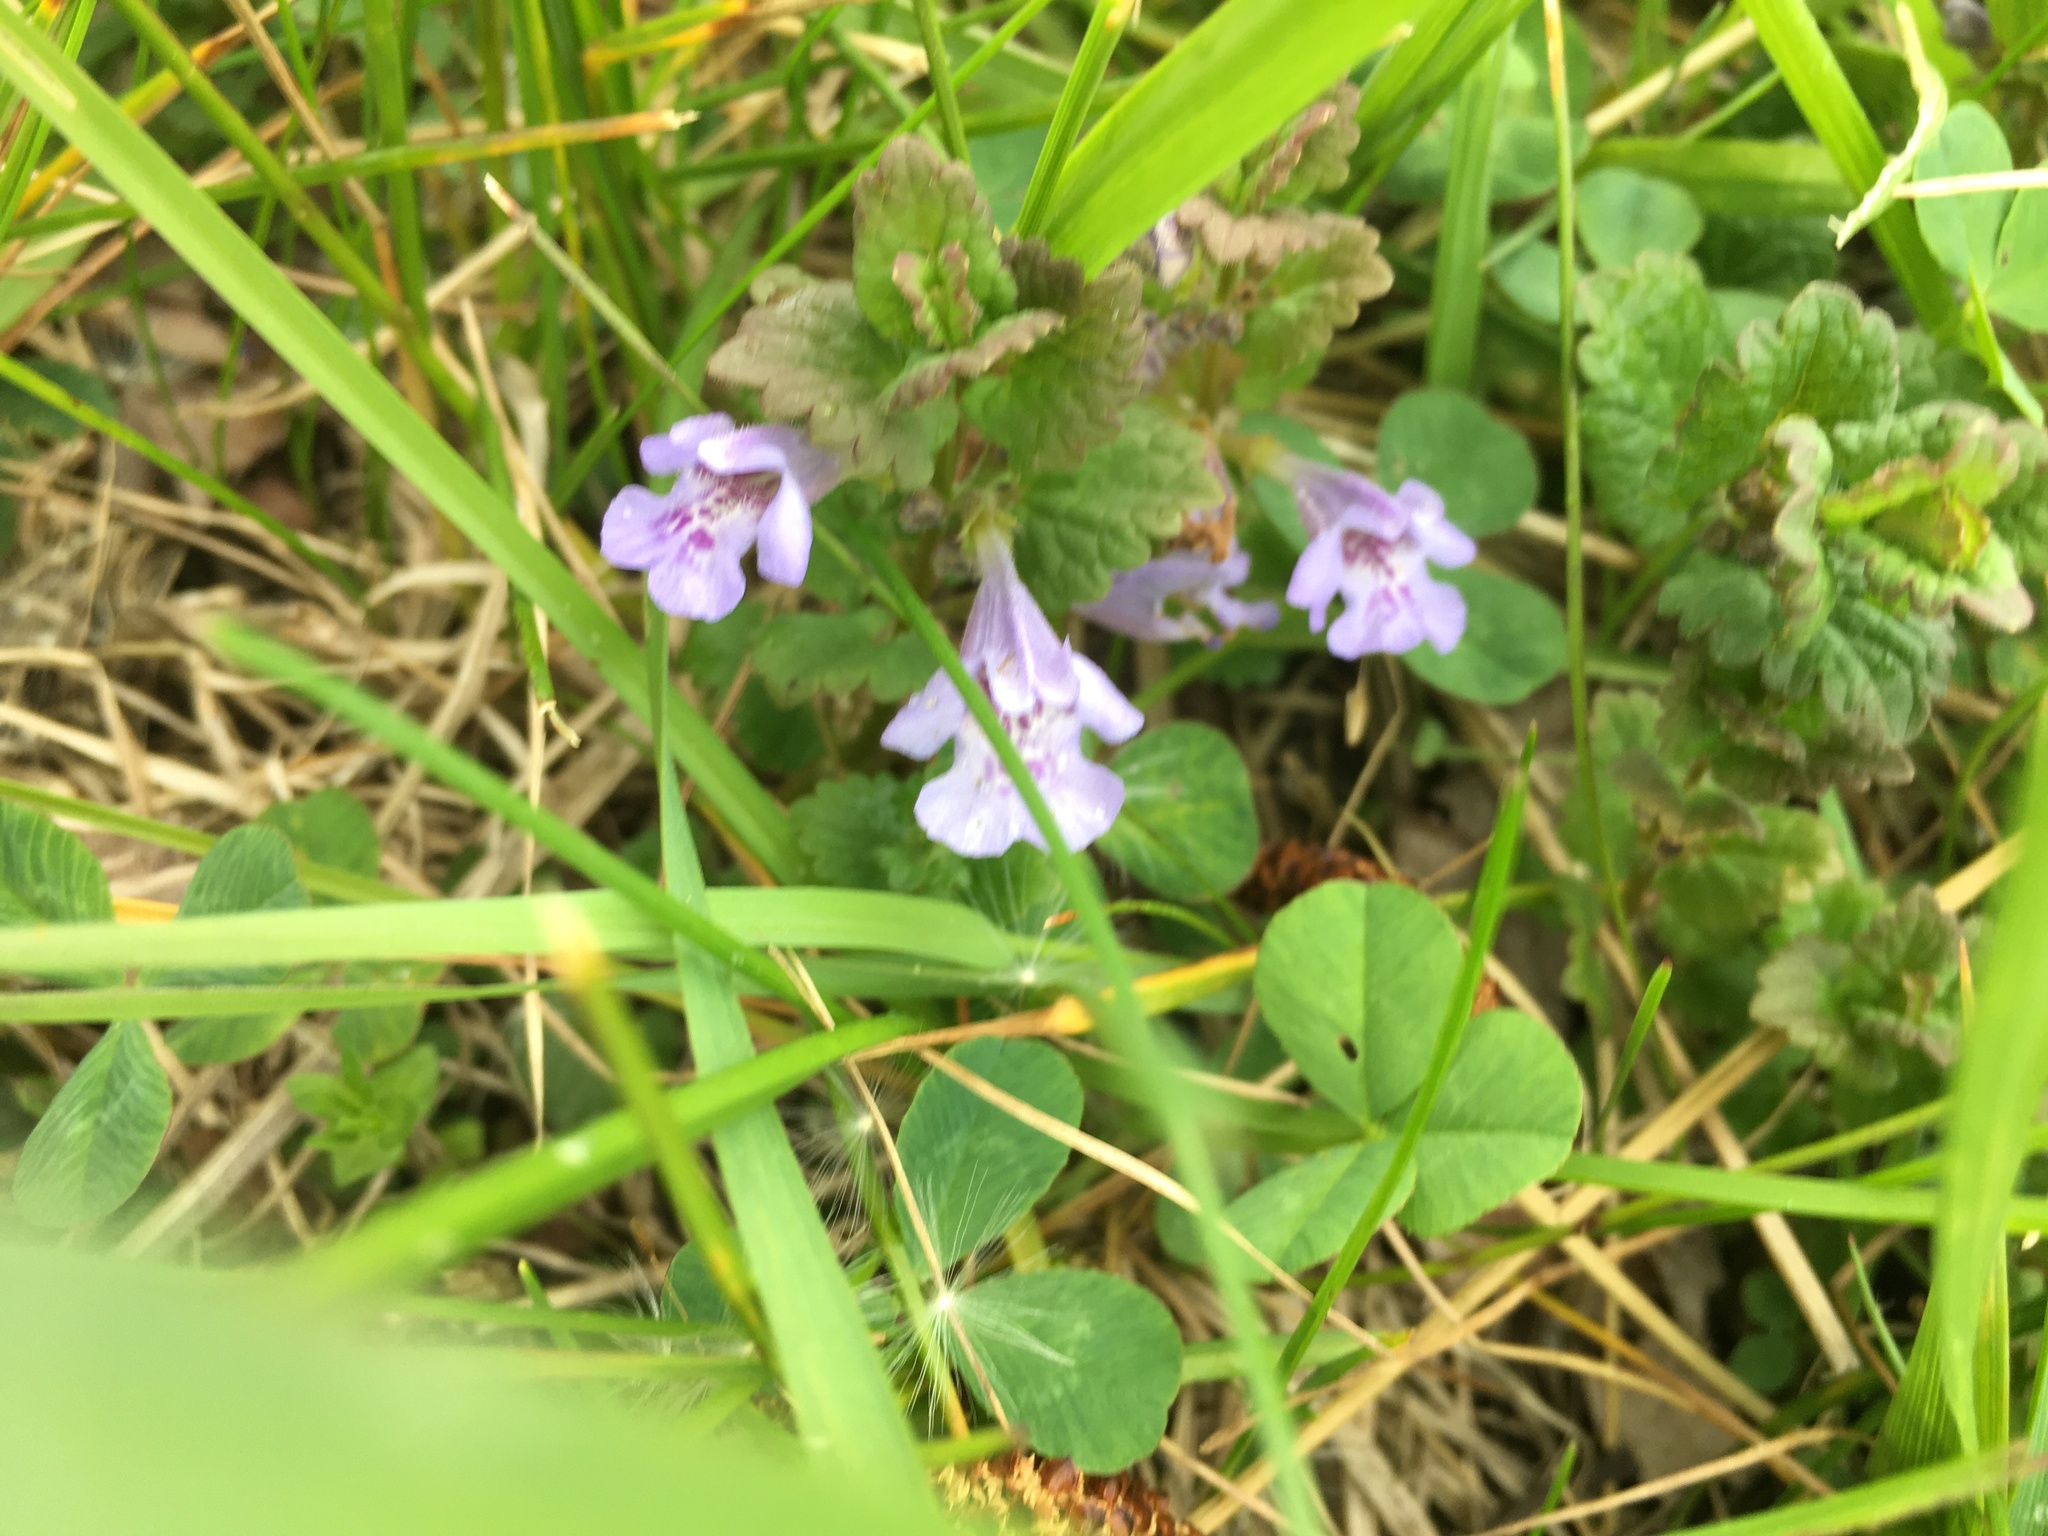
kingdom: Plantae
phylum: Tracheophyta
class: Magnoliopsida
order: Lamiales
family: Lamiaceae
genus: Glechoma
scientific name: Glechoma hederacea
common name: Ground ivy
